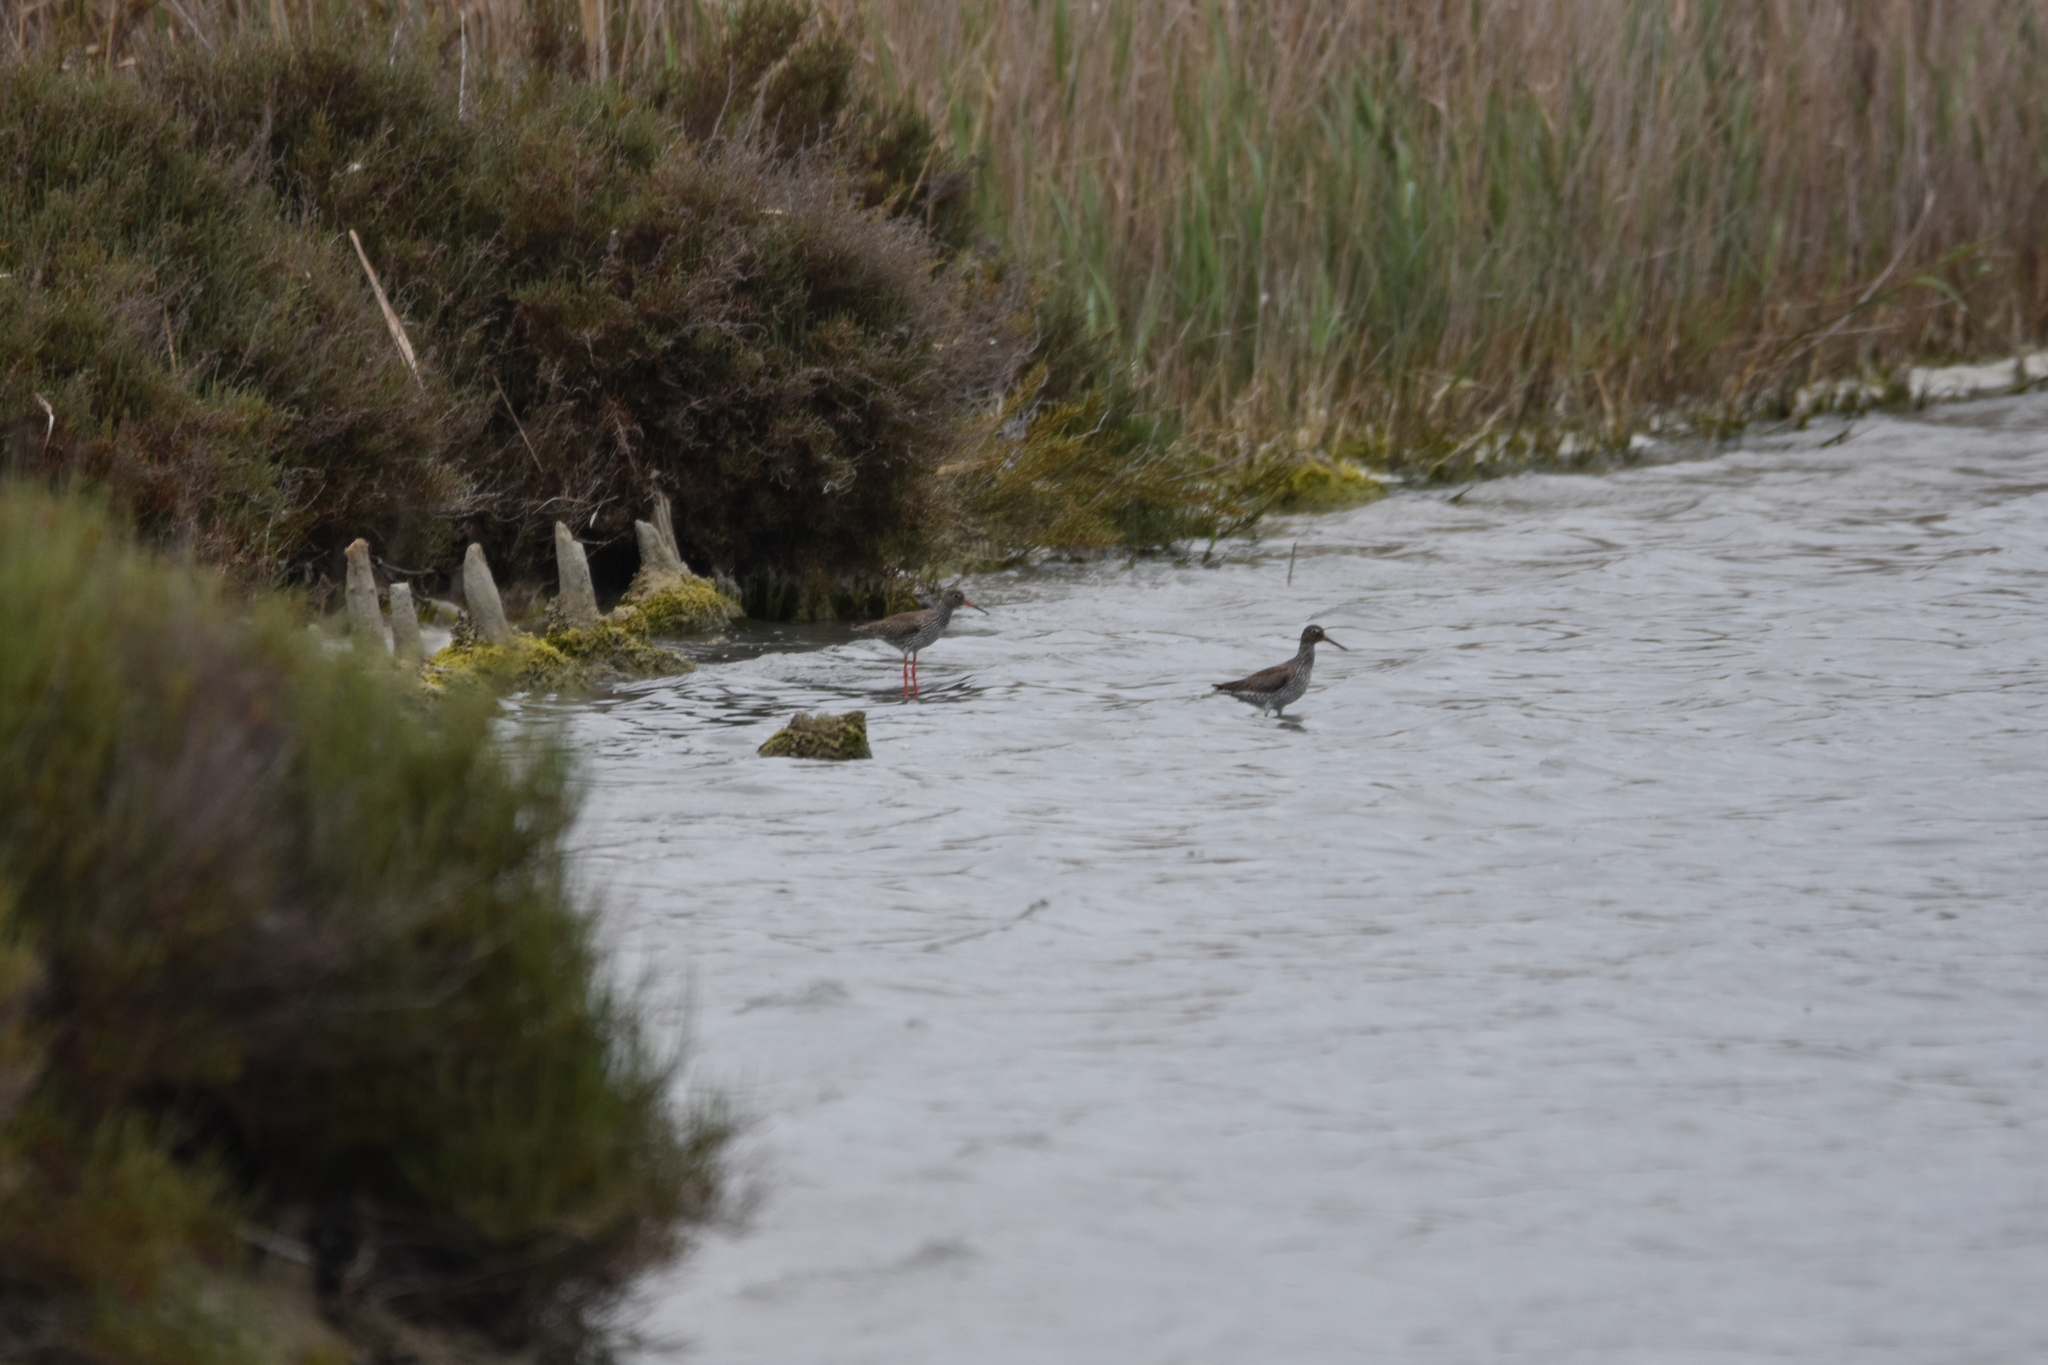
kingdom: Animalia
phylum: Chordata
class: Aves
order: Charadriiformes
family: Scolopacidae
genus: Tringa
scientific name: Tringa totanus
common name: Common redshank
